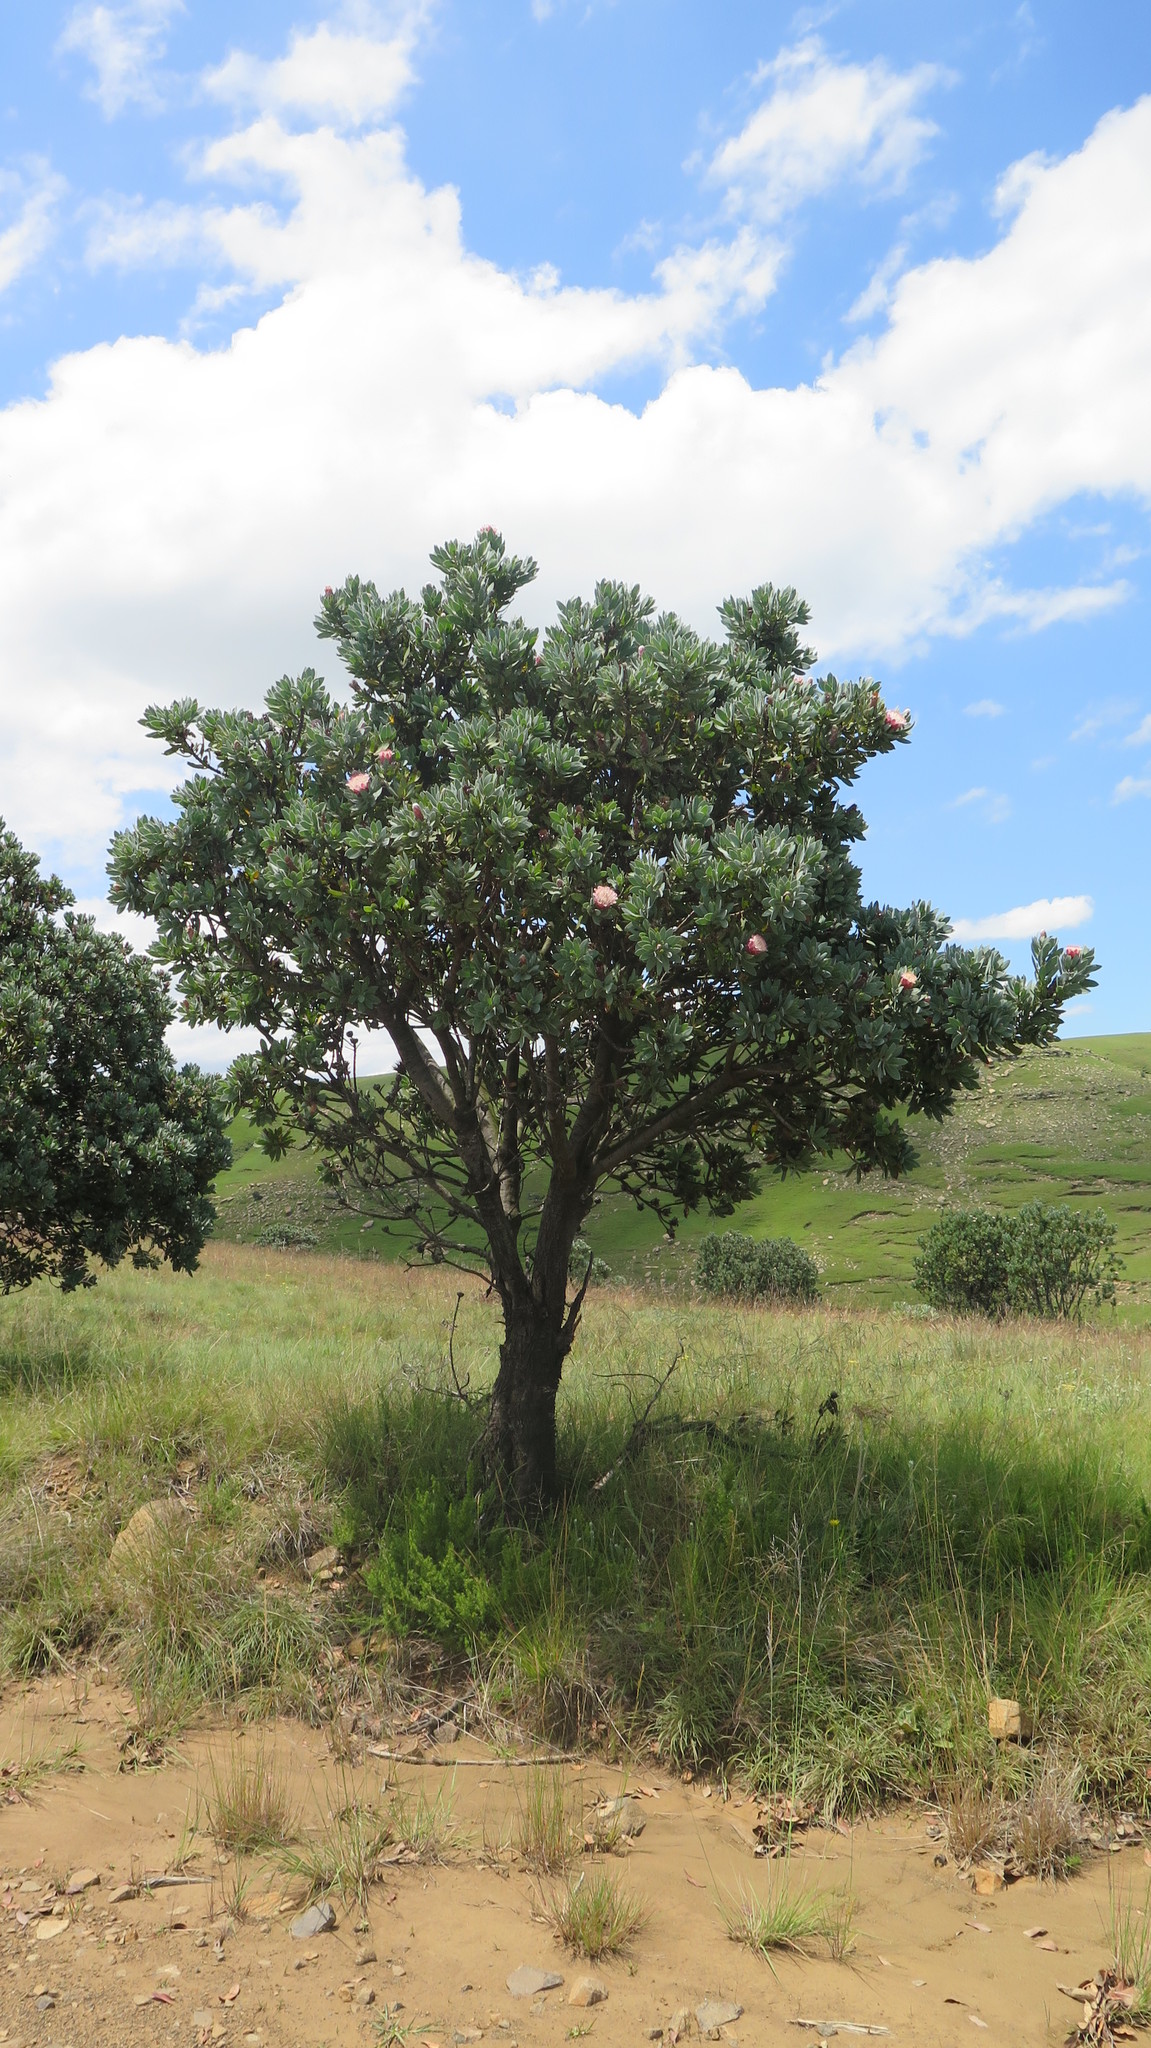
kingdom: Plantae
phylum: Tracheophyta
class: Magnoliopsida
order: Proteales
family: Proteaceae
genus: Protea
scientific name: Protea subvestita
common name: Lip-flower sugarbush
